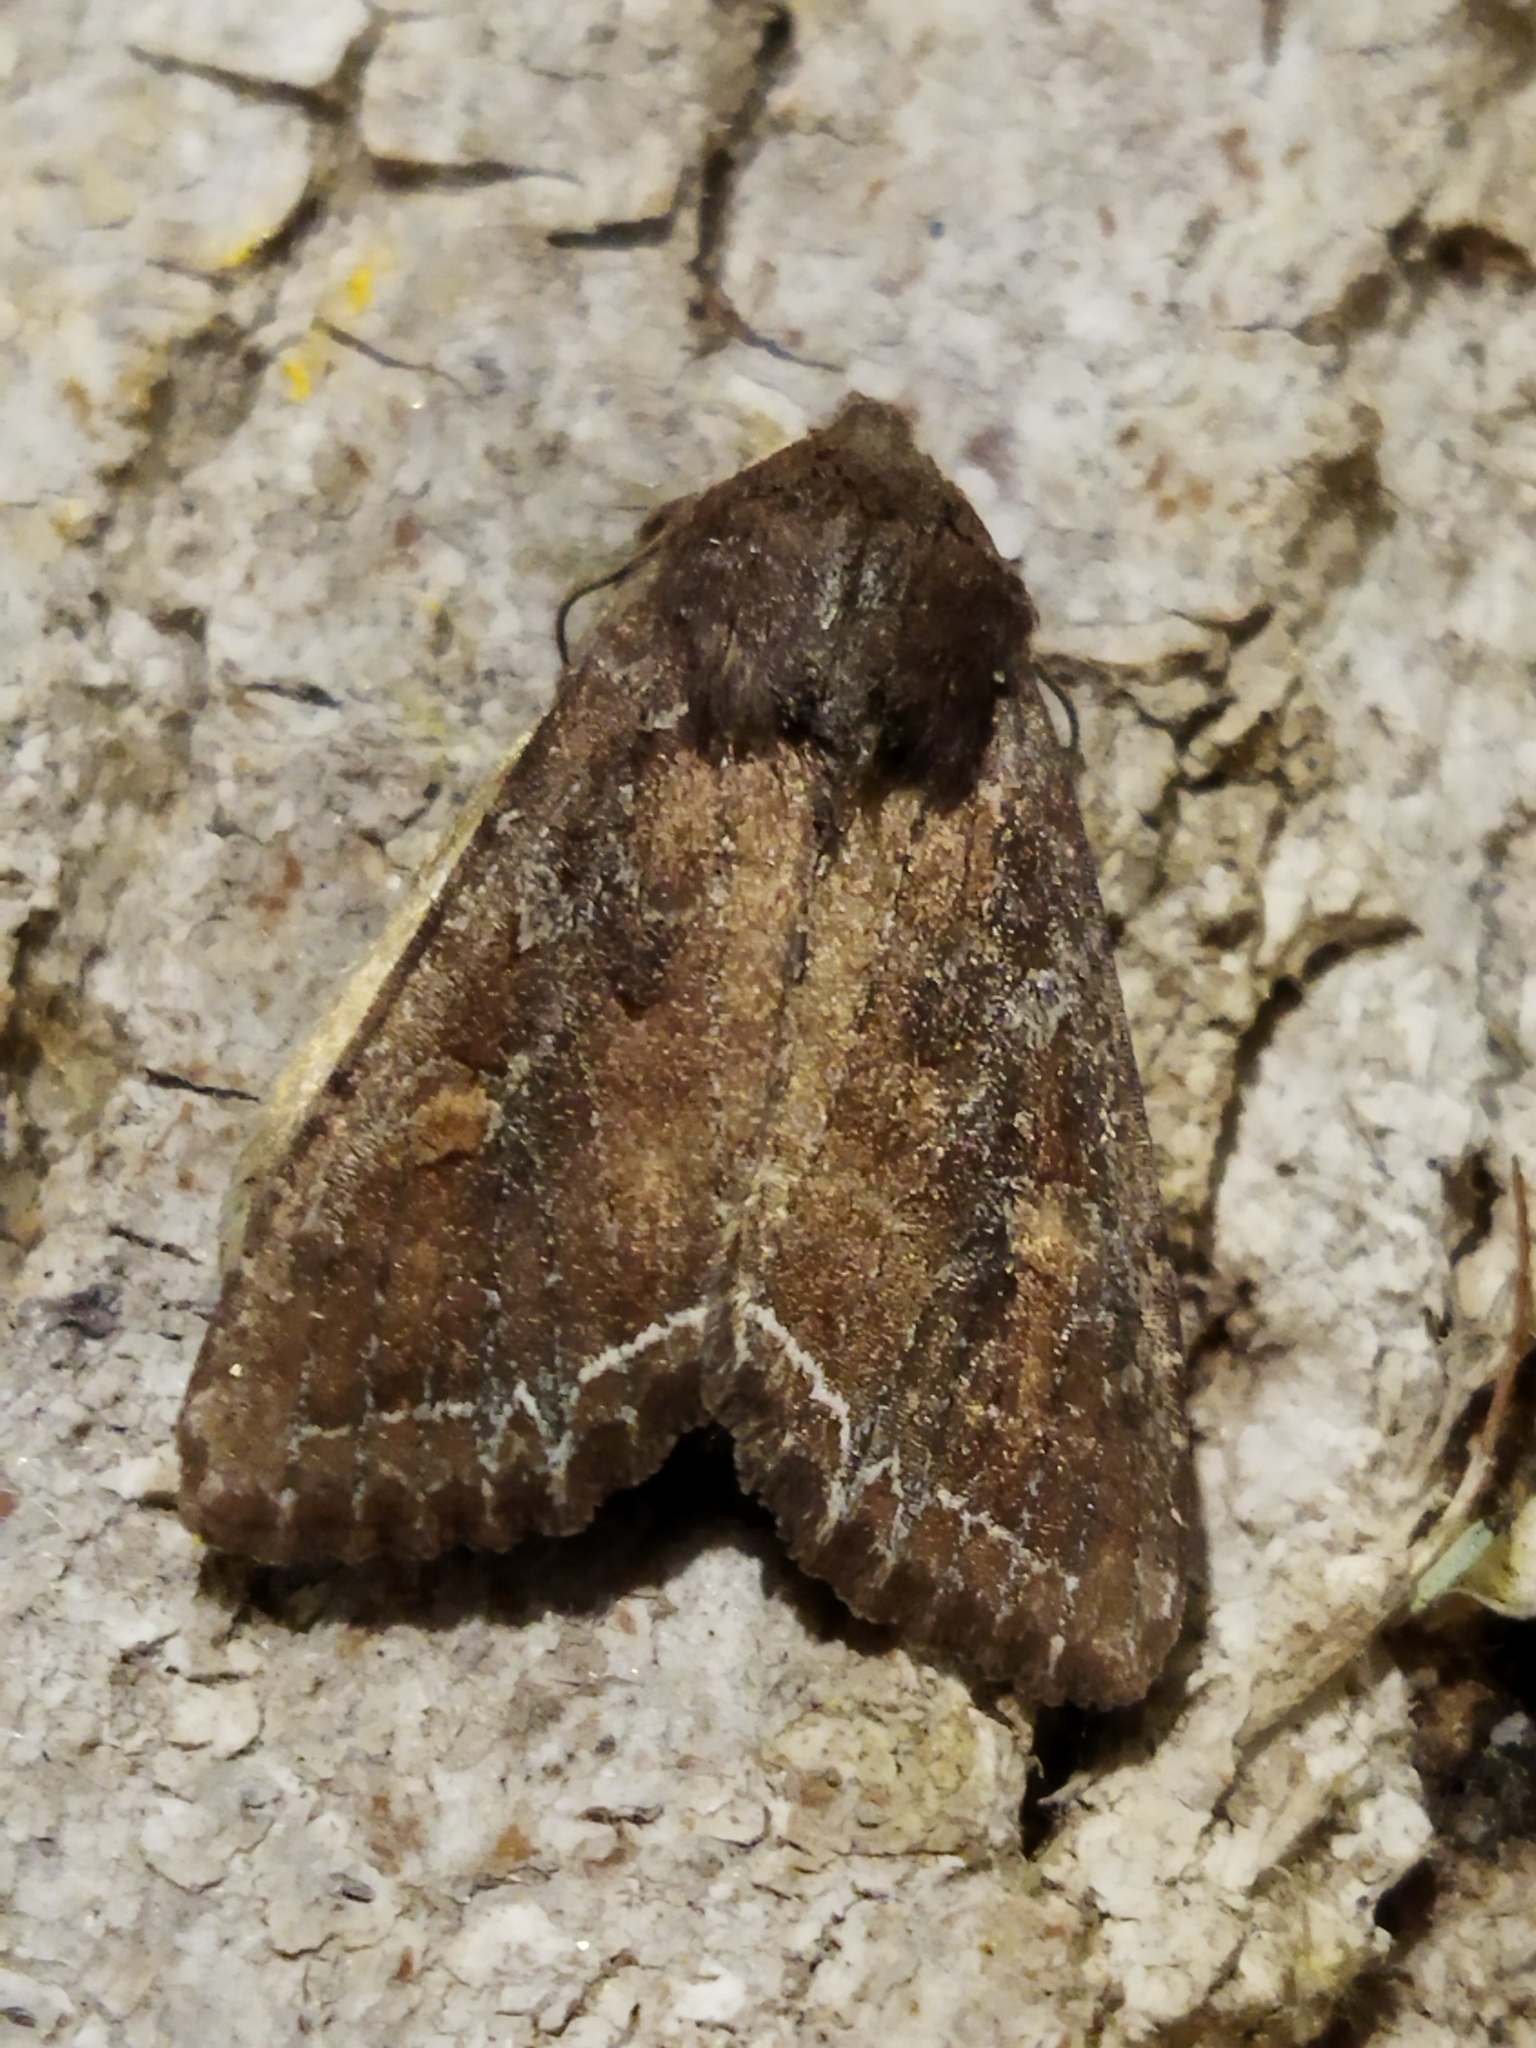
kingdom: Animalia
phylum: Arthropoda
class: Insecta
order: Lepidoptera
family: Noctuidae
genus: Lacanobia
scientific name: Lacanobia oleracea
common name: Bright-line brown-eye
